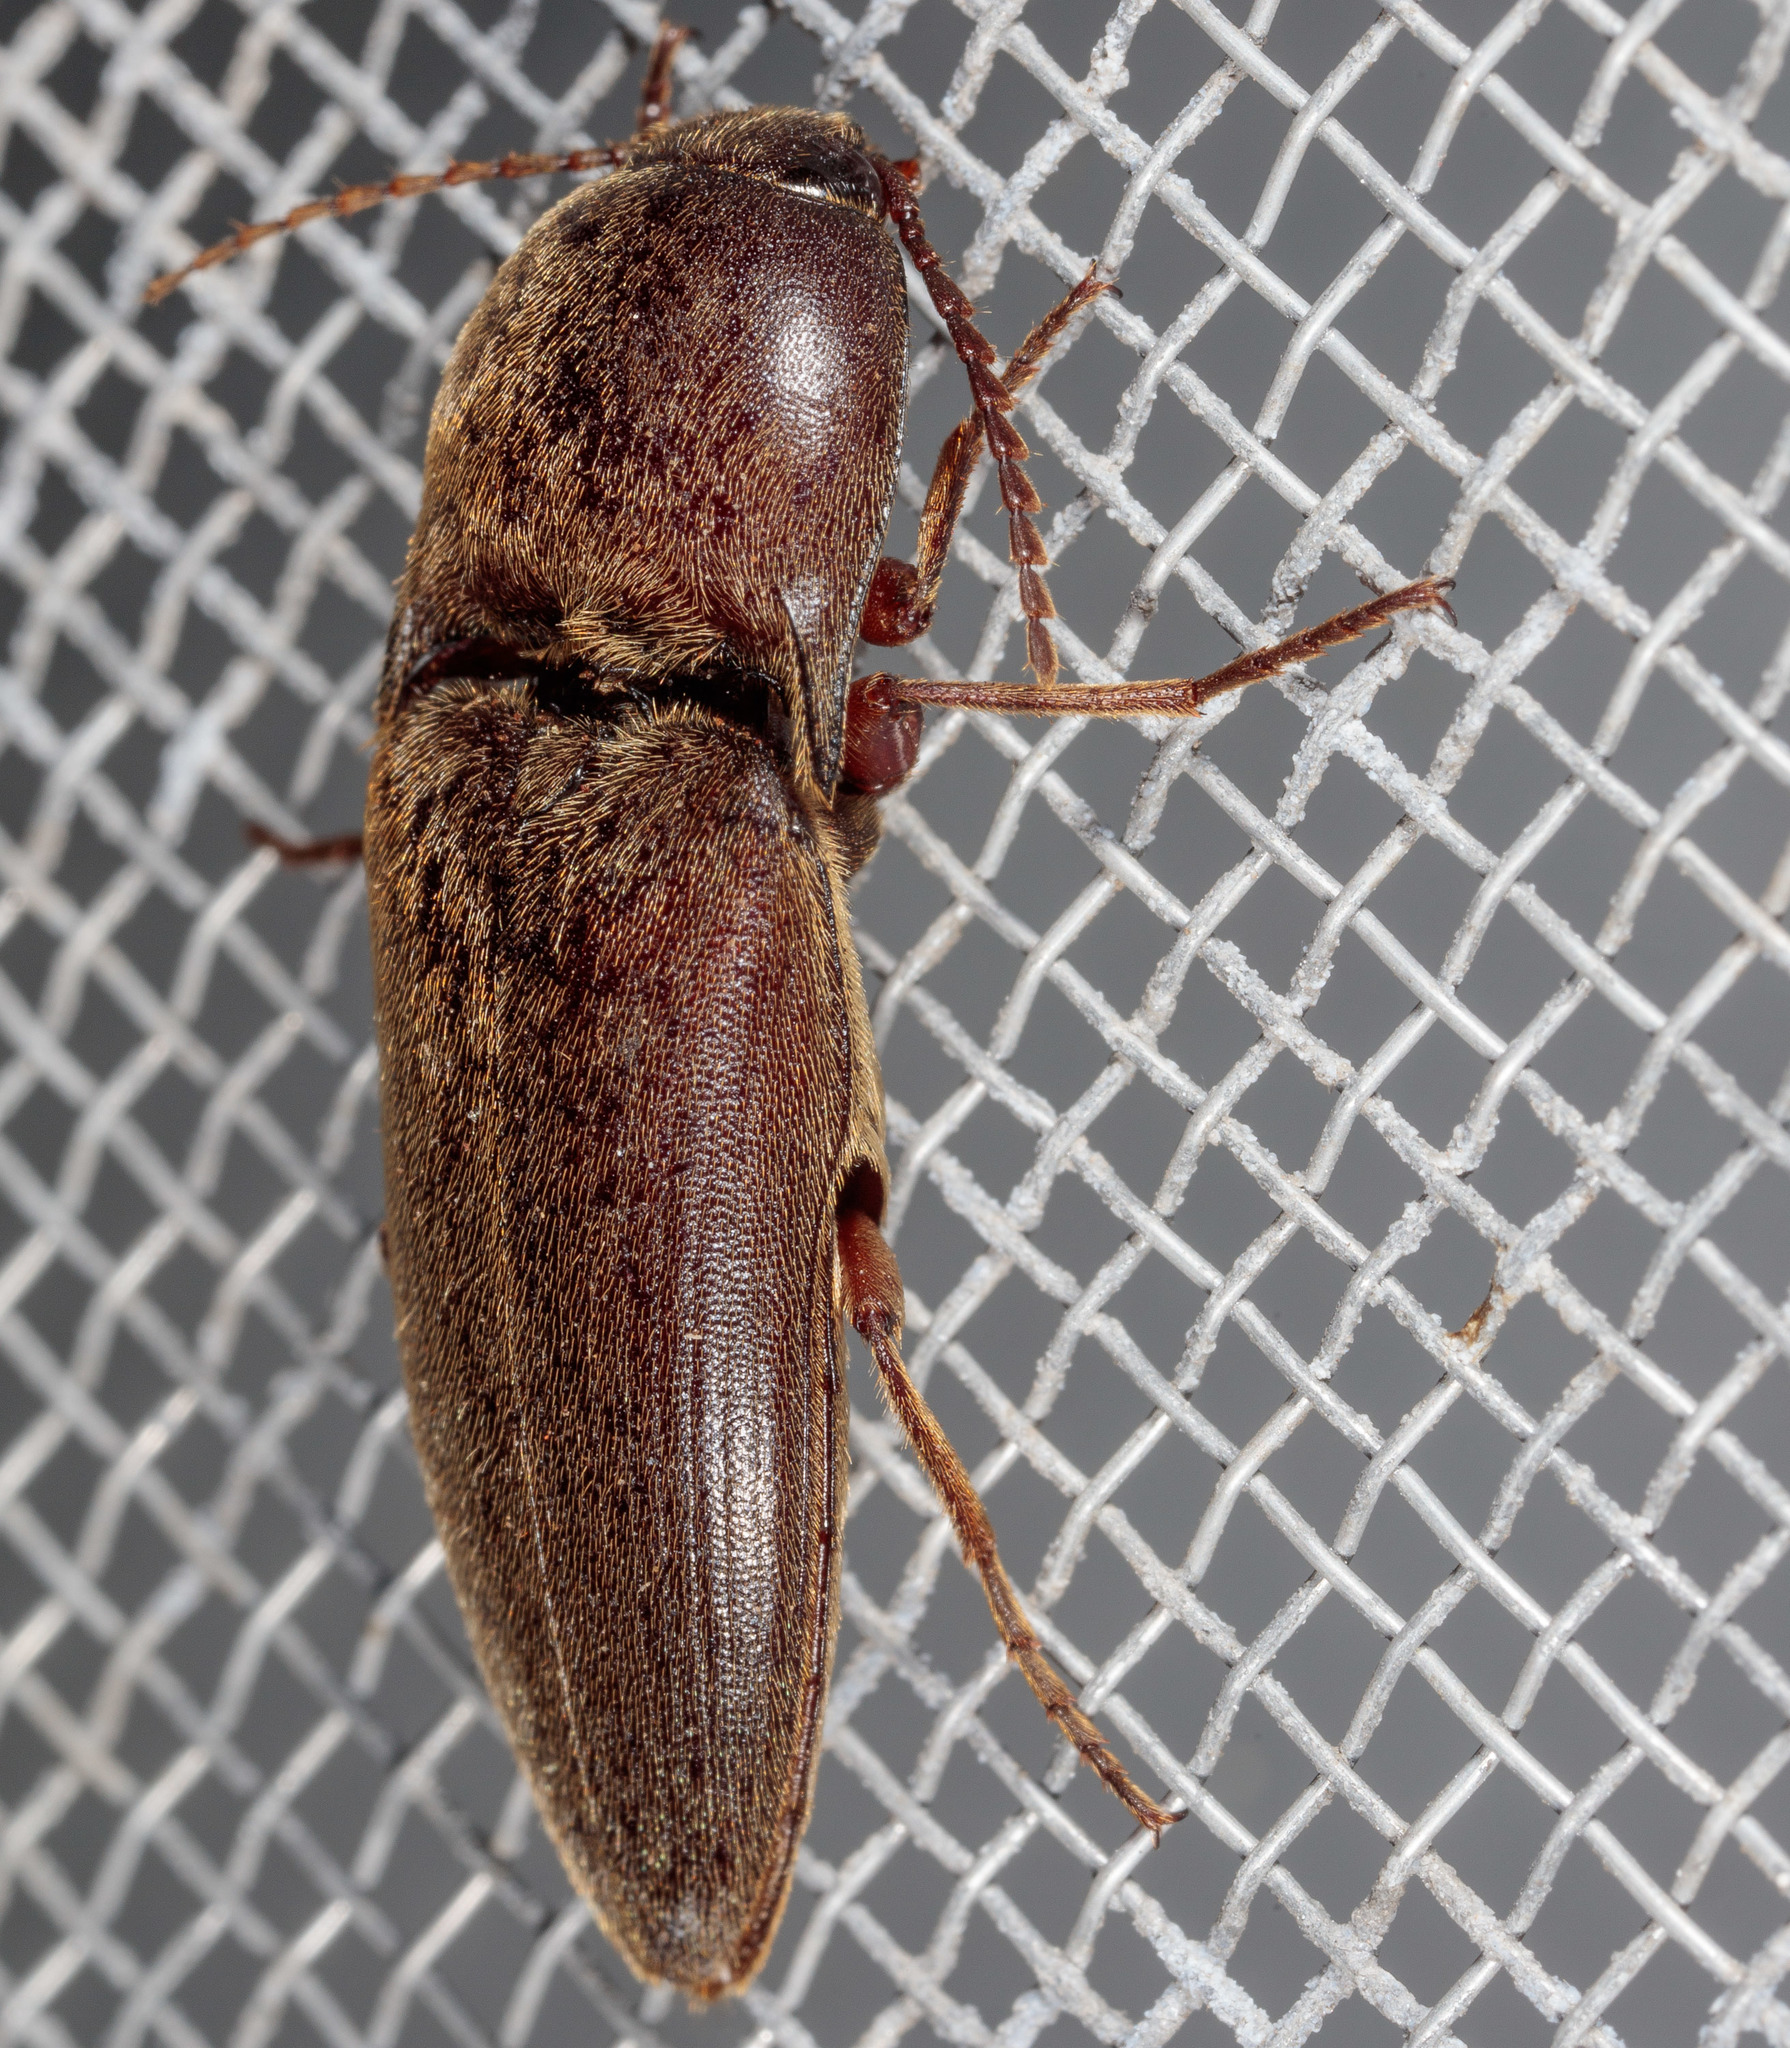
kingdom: Animalia
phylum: Arthropoda
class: Insecta
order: Coleoptera
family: Elateridae
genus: Diplostethus
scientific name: Diplostethus
